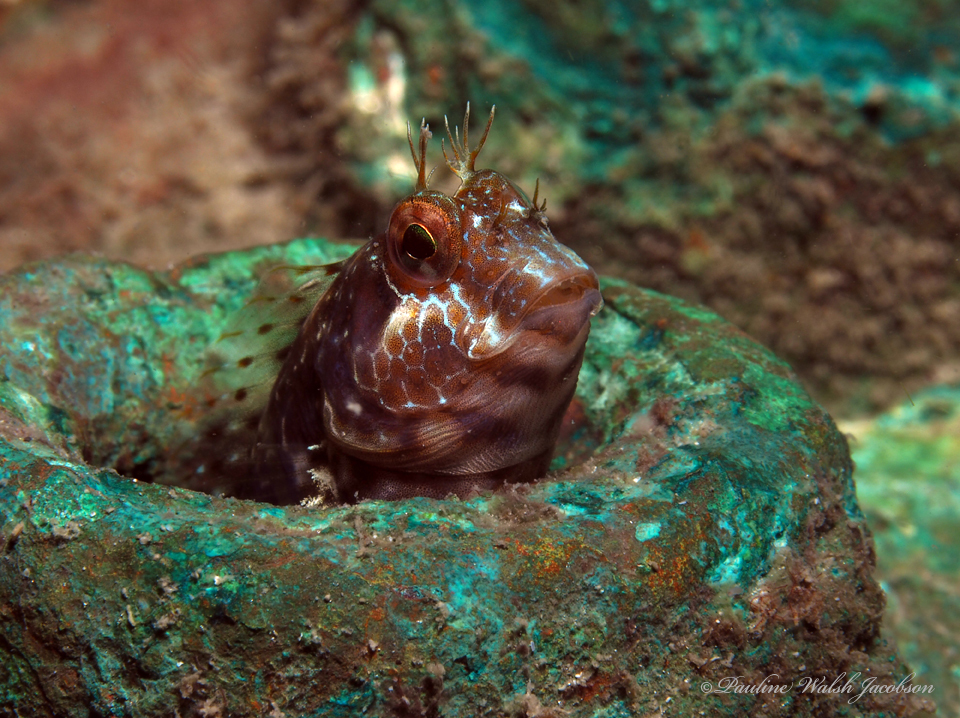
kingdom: Animalia
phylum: Chordata
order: Perciformes
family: Blenniidae
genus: Parablennius
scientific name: Parablennius marmoreus
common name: Seaweed blenny
